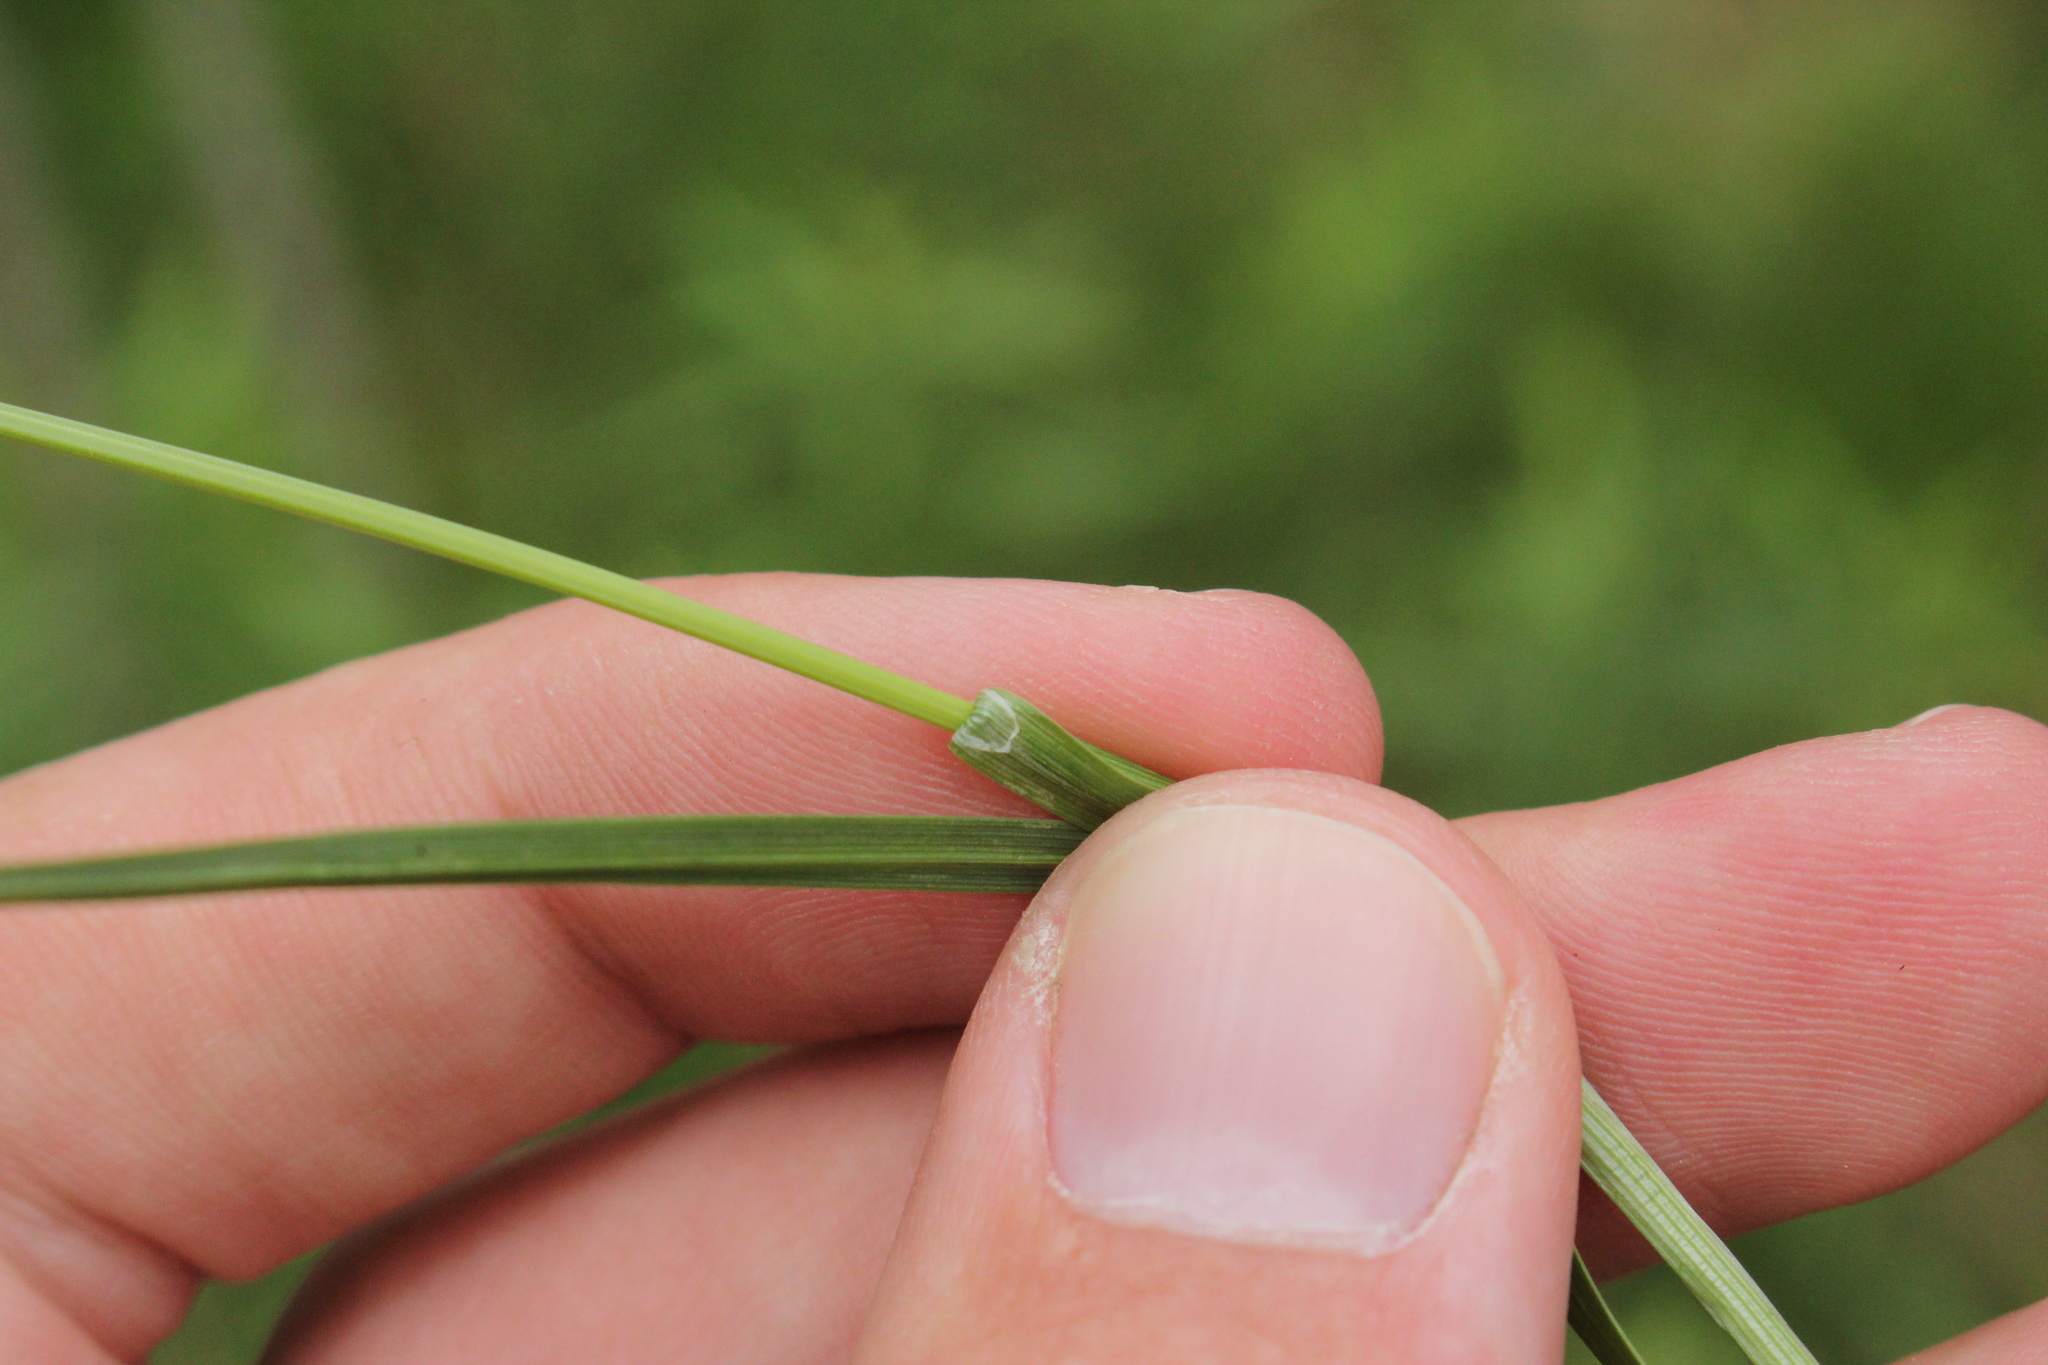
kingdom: Plantae
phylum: Tracheophyta
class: Liliopsida
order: Poales
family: Cyperaceae
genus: Carex
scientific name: Carex meadii
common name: Mead's sedge
